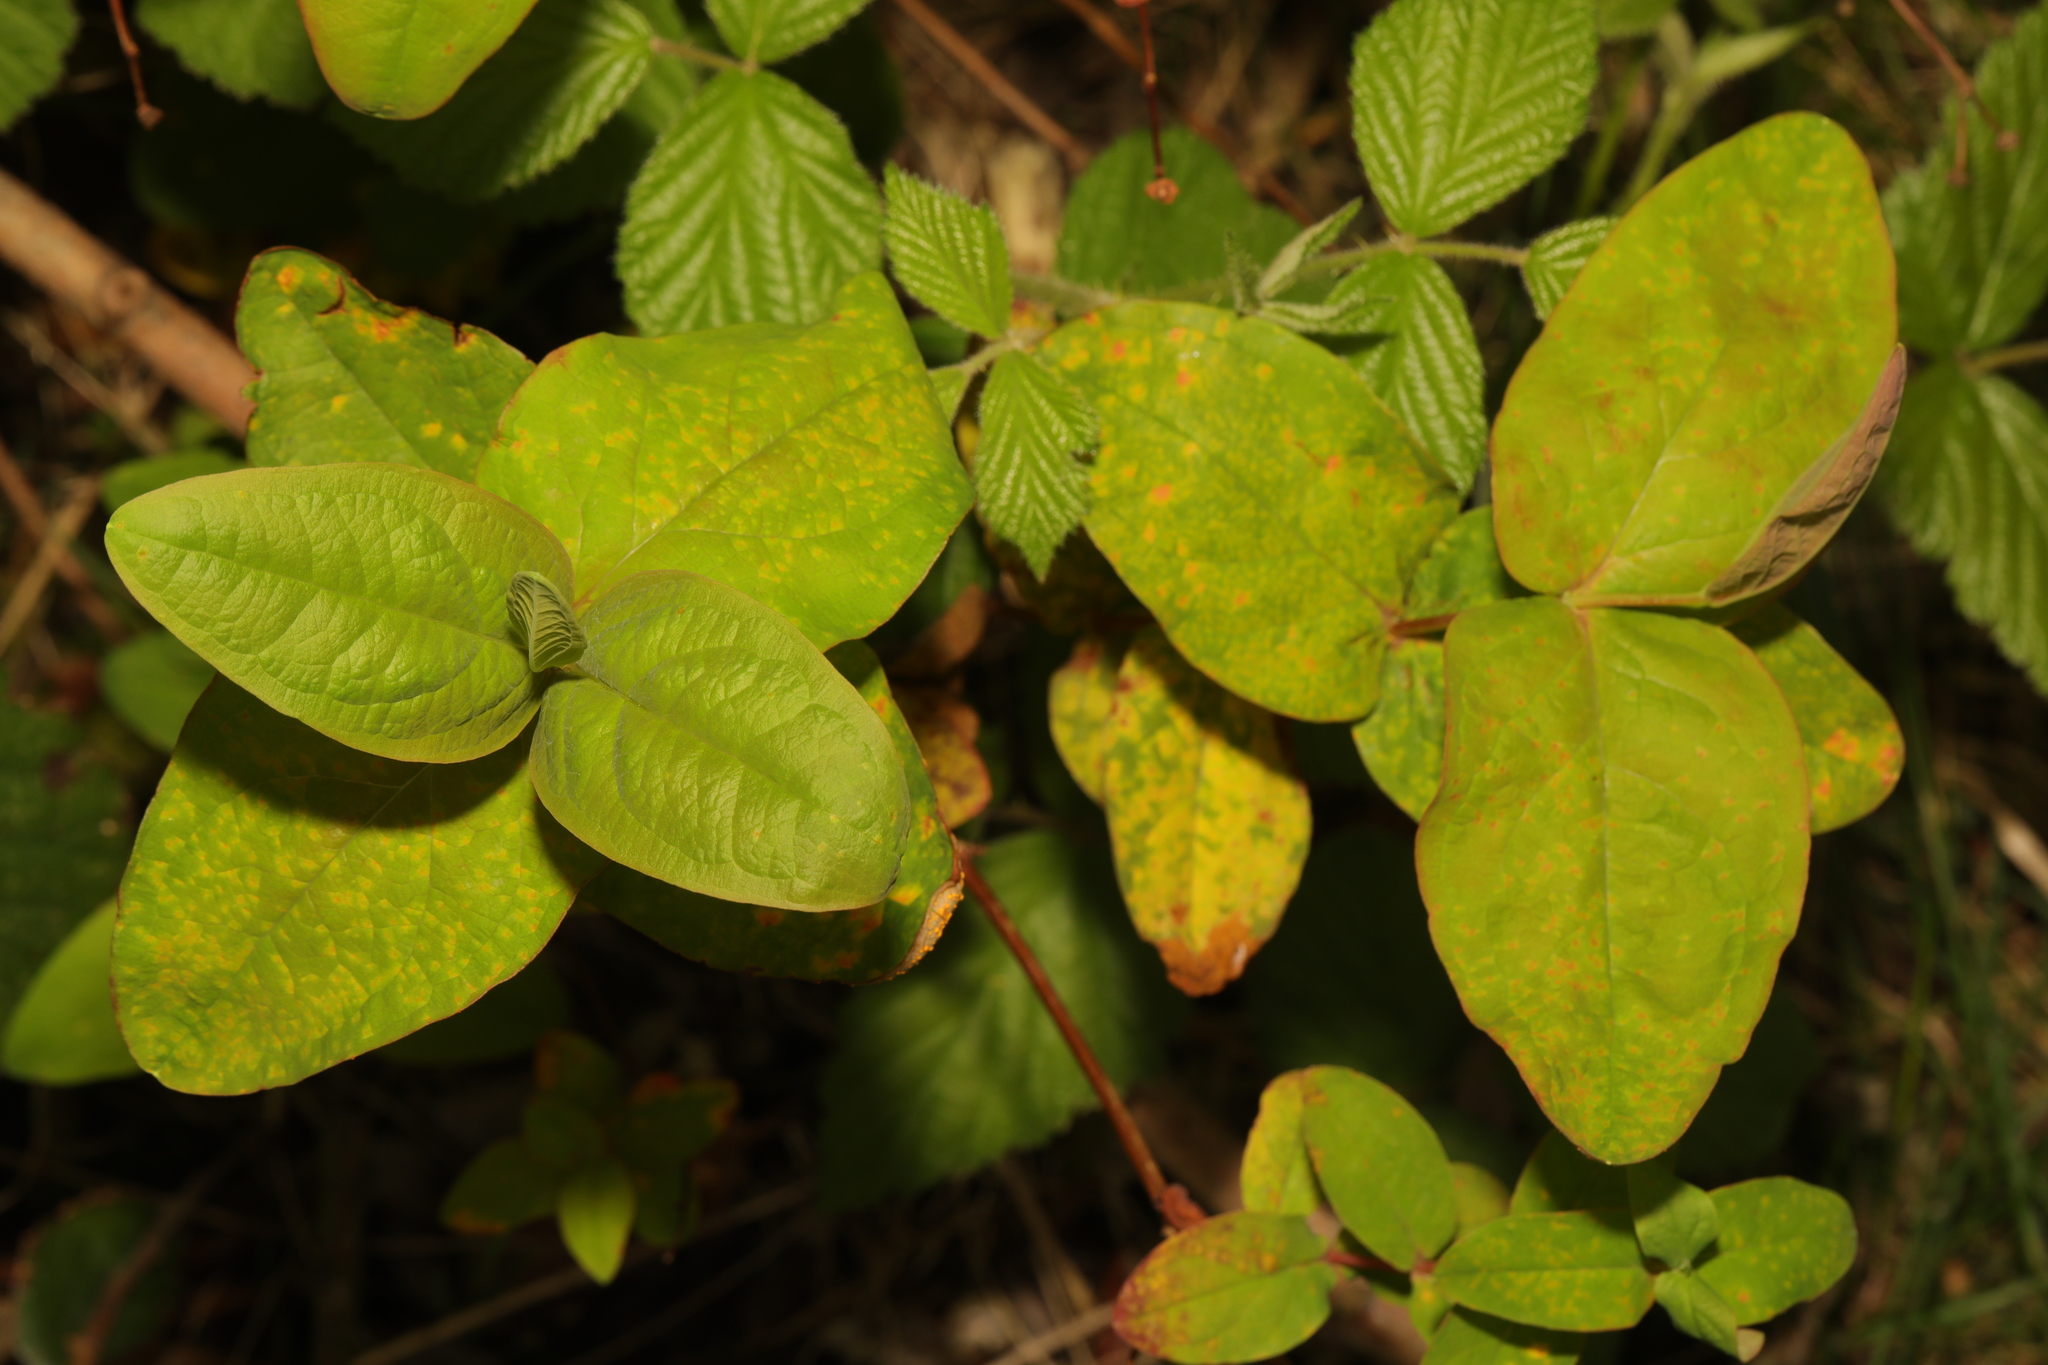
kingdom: Plantae
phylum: Tracheophyta
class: Magnoliopsida
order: Malpighiales
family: Hypericaceae
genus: Hypericum
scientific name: Hypericum androsaemum
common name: Sweet-amber
